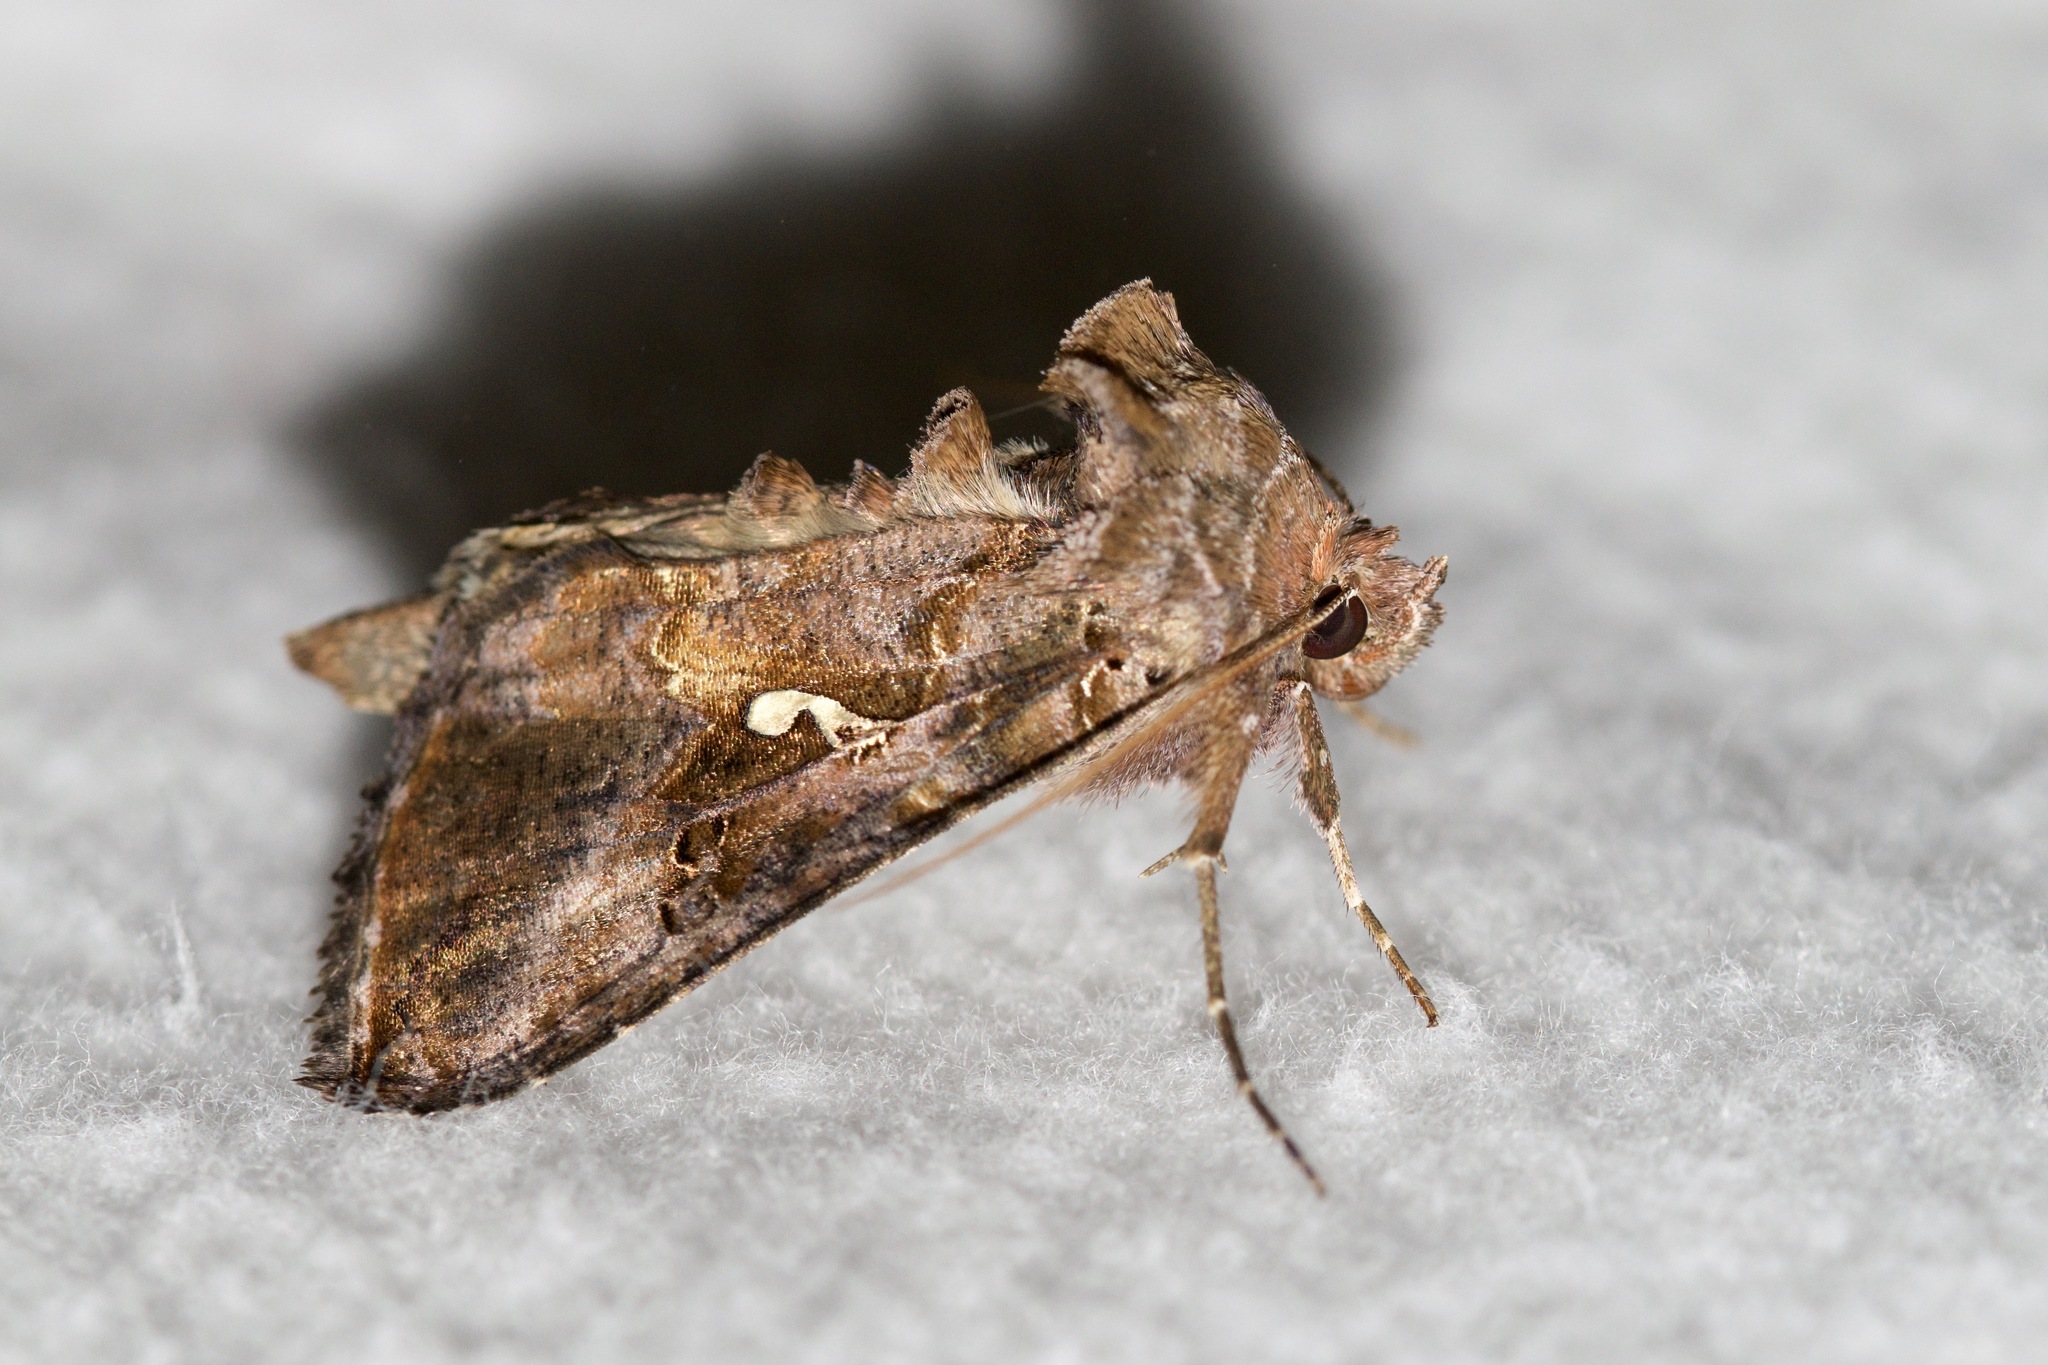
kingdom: Animalia
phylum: Arthropoda
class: Insecta
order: Lepidoptera
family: Noctuidae
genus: Autographa
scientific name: Autographa precationis
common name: Common looper moth
